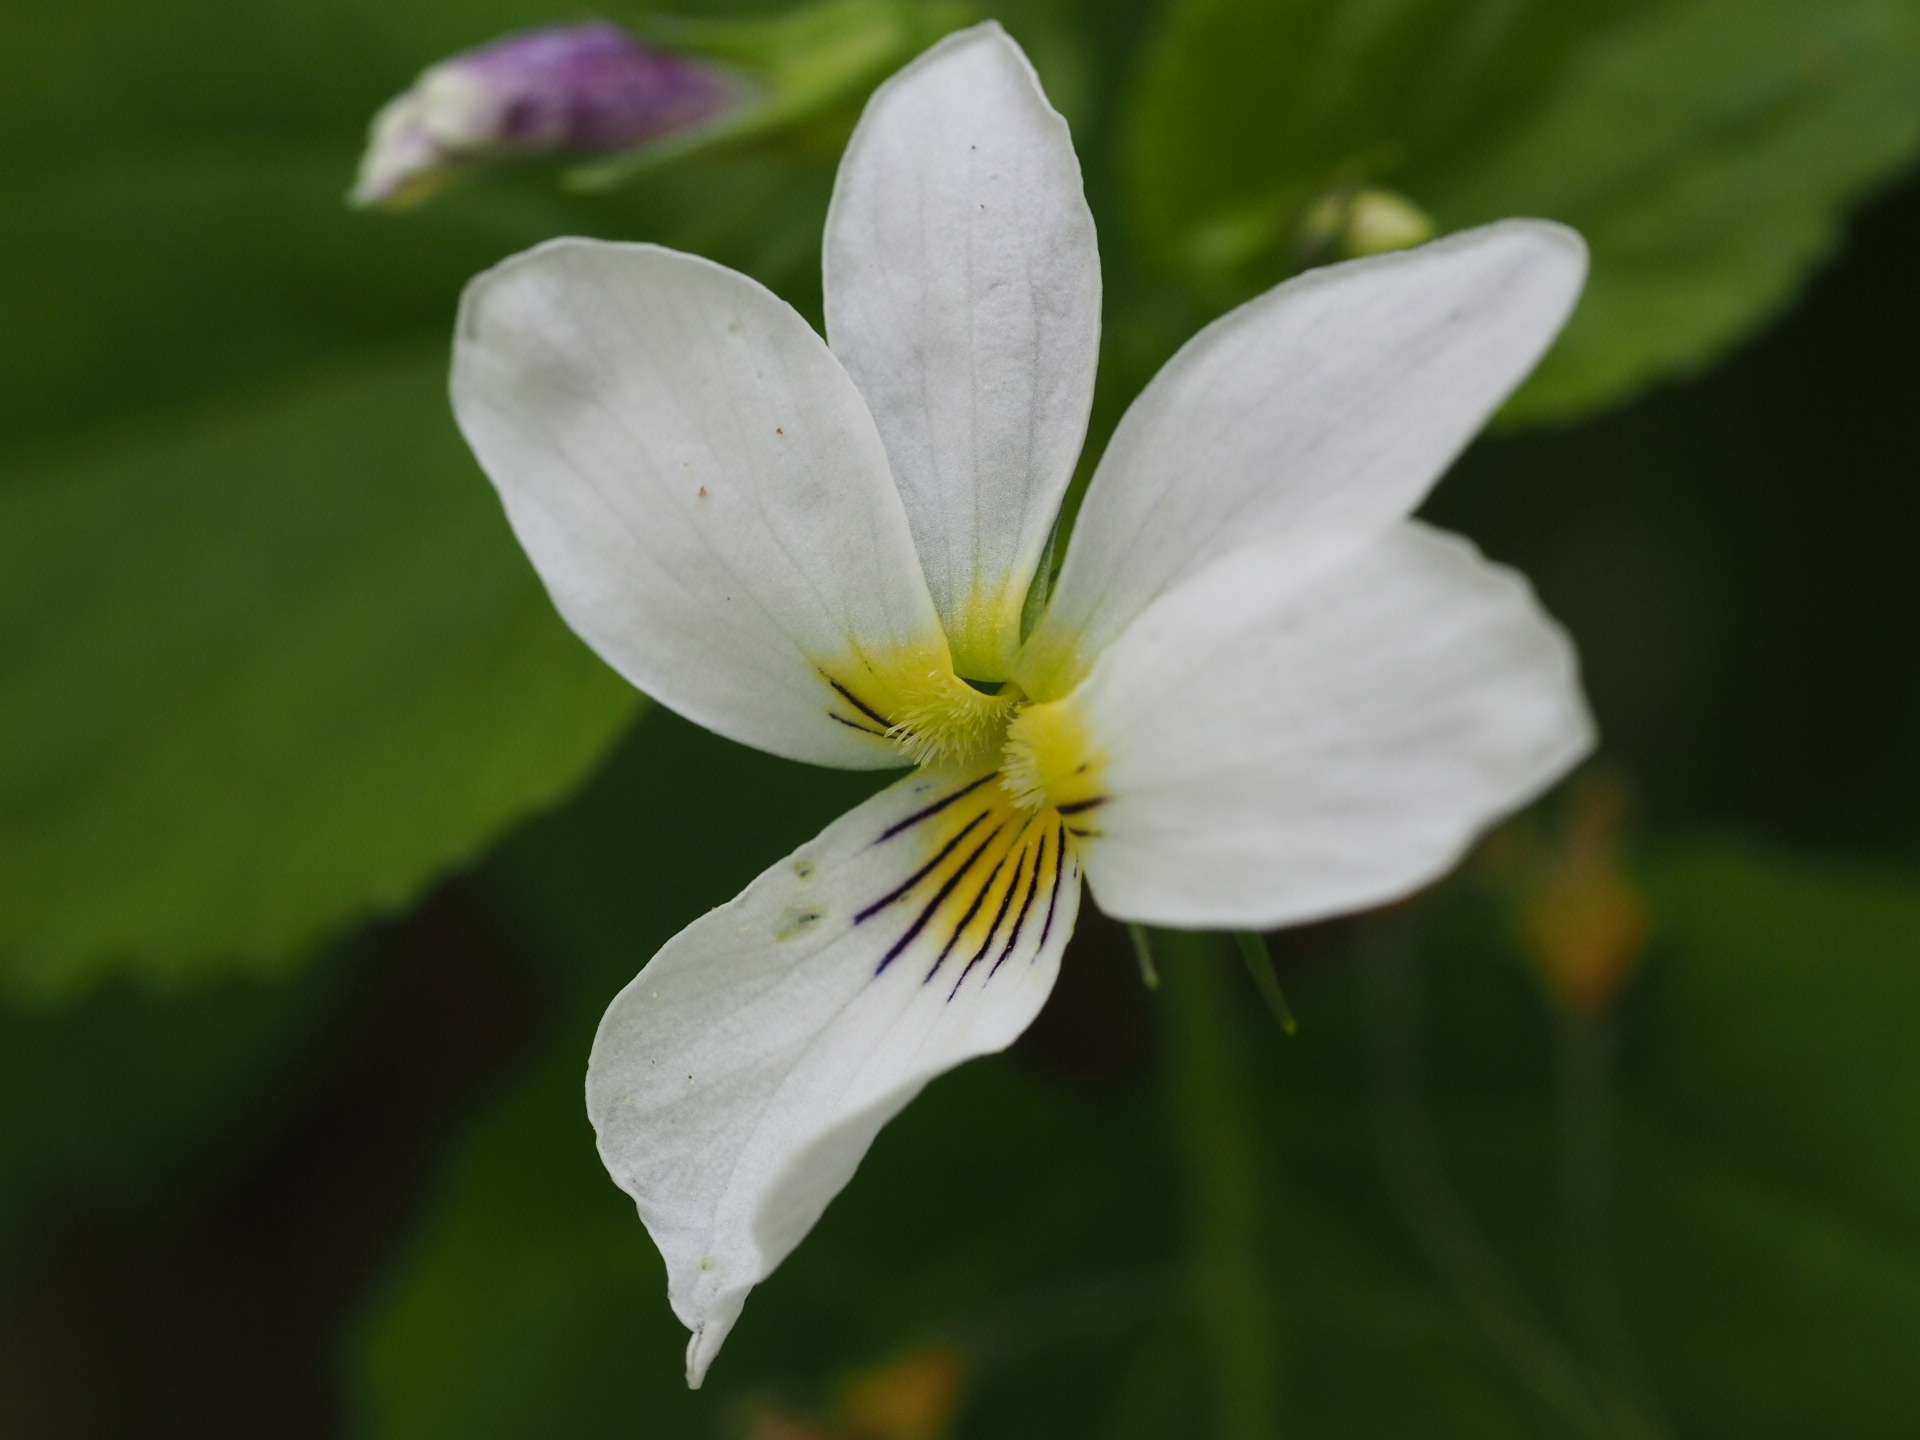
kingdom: Plantae
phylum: Tracheophyta
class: Magnoliopsida
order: Malpighiales
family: Violaceae
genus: Viola
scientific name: Viola canadensis
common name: Canada violet
